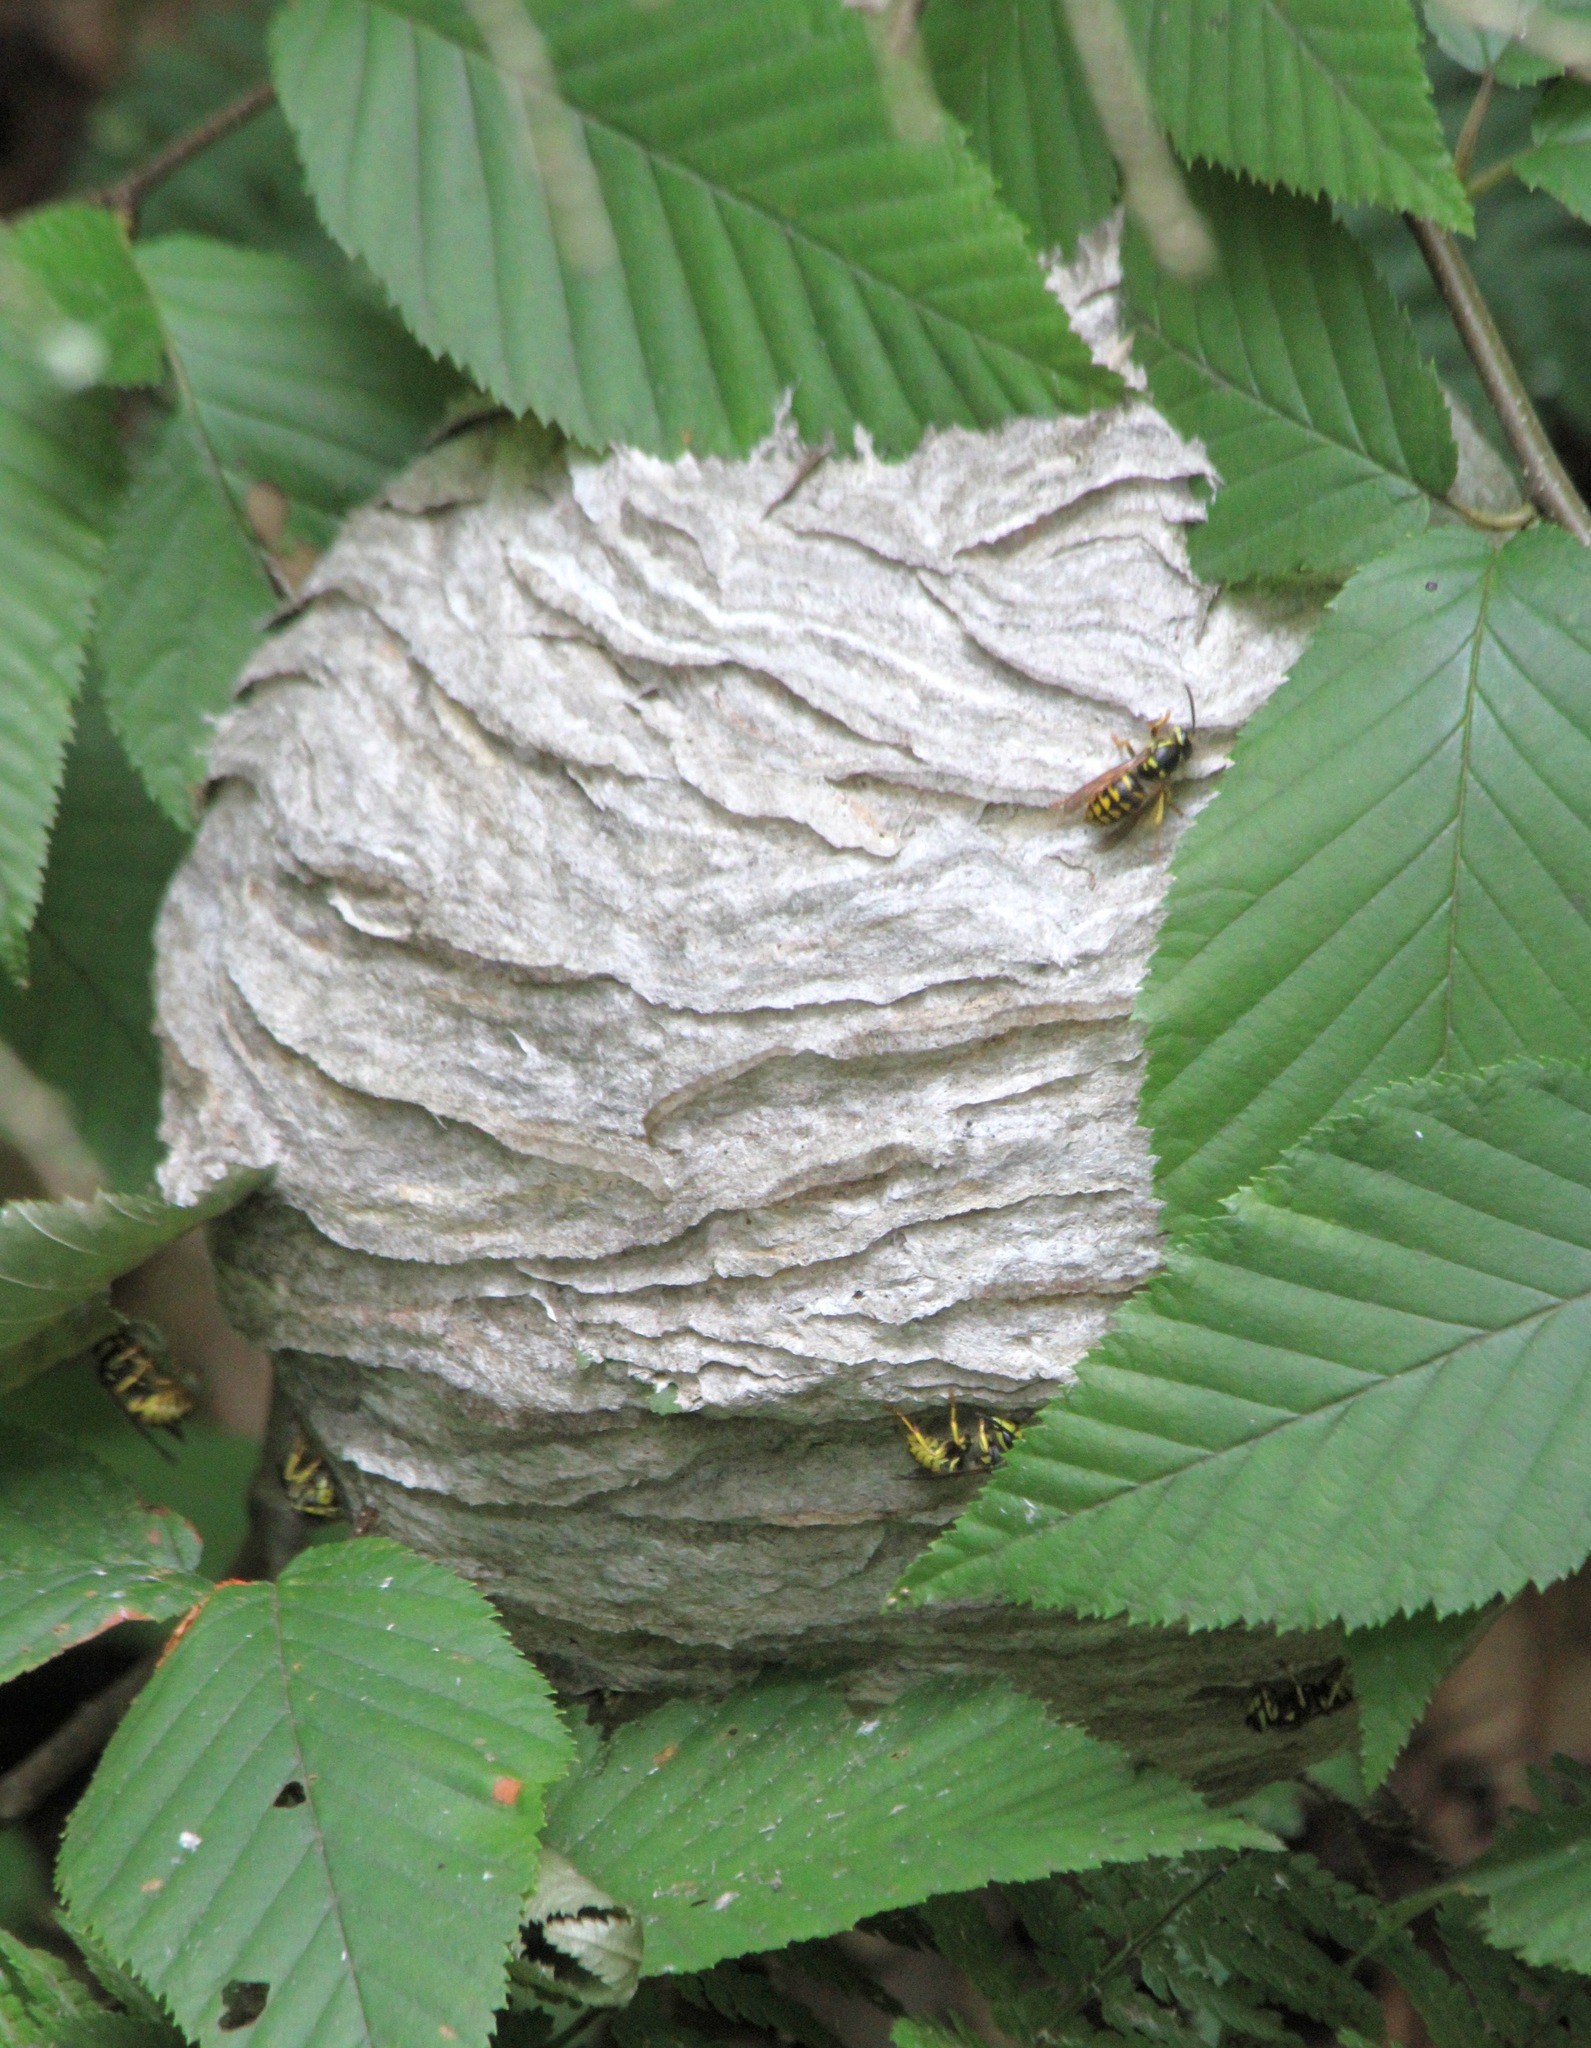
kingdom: Animalia
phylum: Arthropoda
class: Insecta
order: Hymenoptera
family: Vespidae
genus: Dolichovespula
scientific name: Dolichovespula arenaria
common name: Aerial yellowjacket
